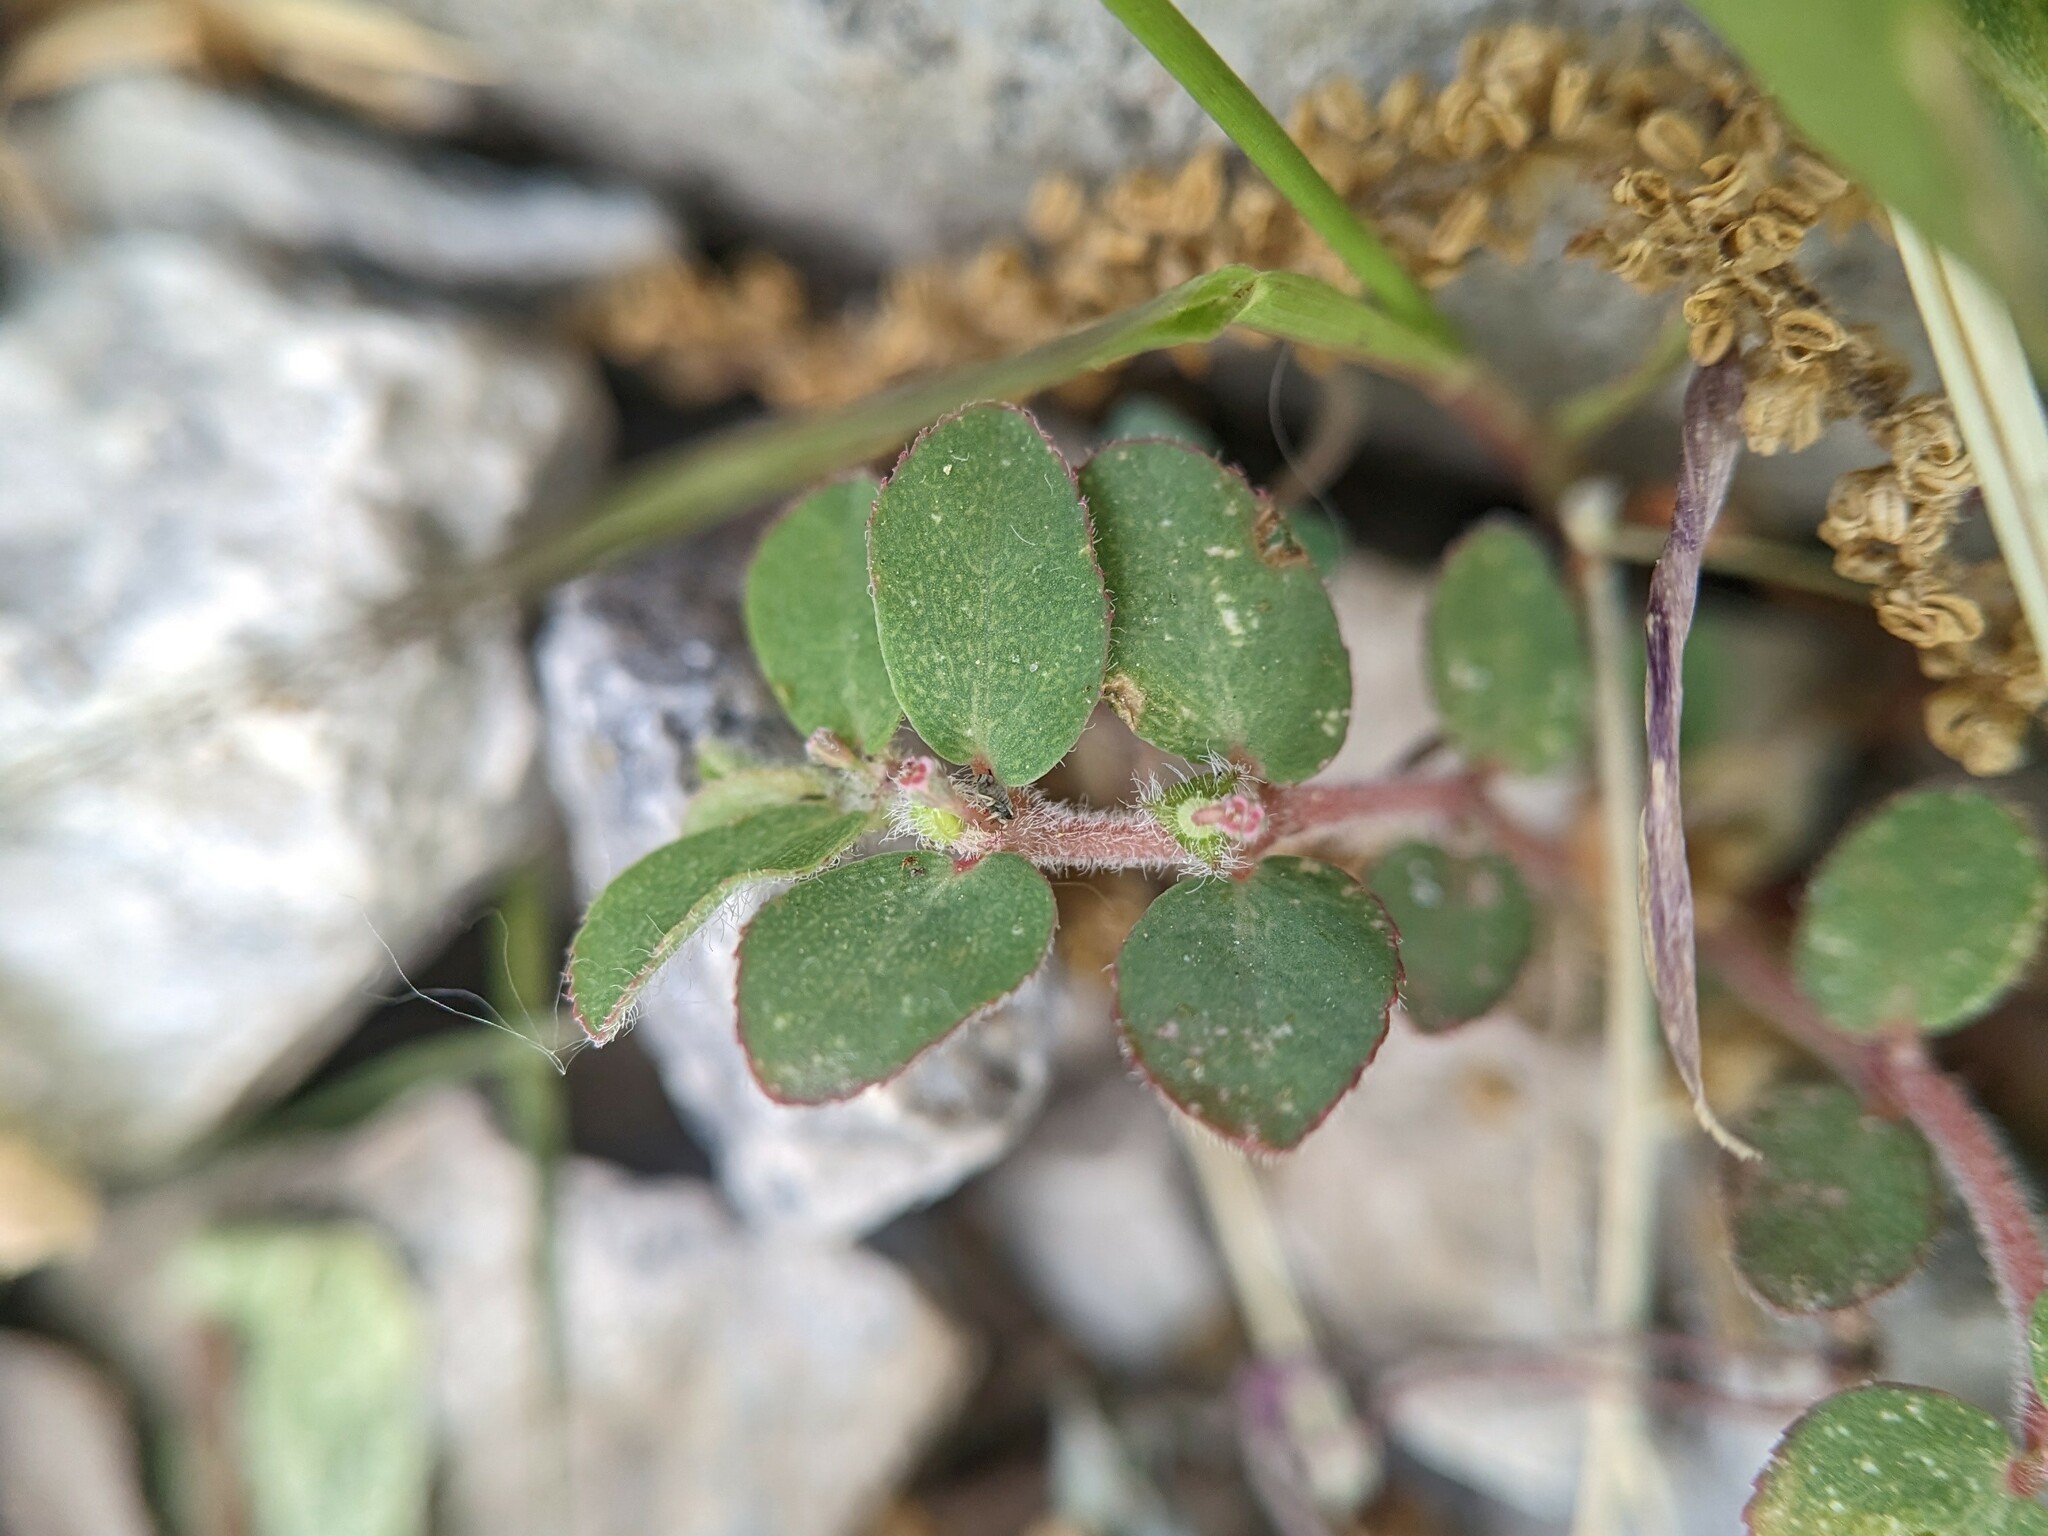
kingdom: Plantae
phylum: Tracheophyta
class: Magnoliopsida
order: Malpighiales
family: Euphorbiaceae
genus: Euphorbia
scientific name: Euphorbia prostrata
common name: Prostrate sandmat
